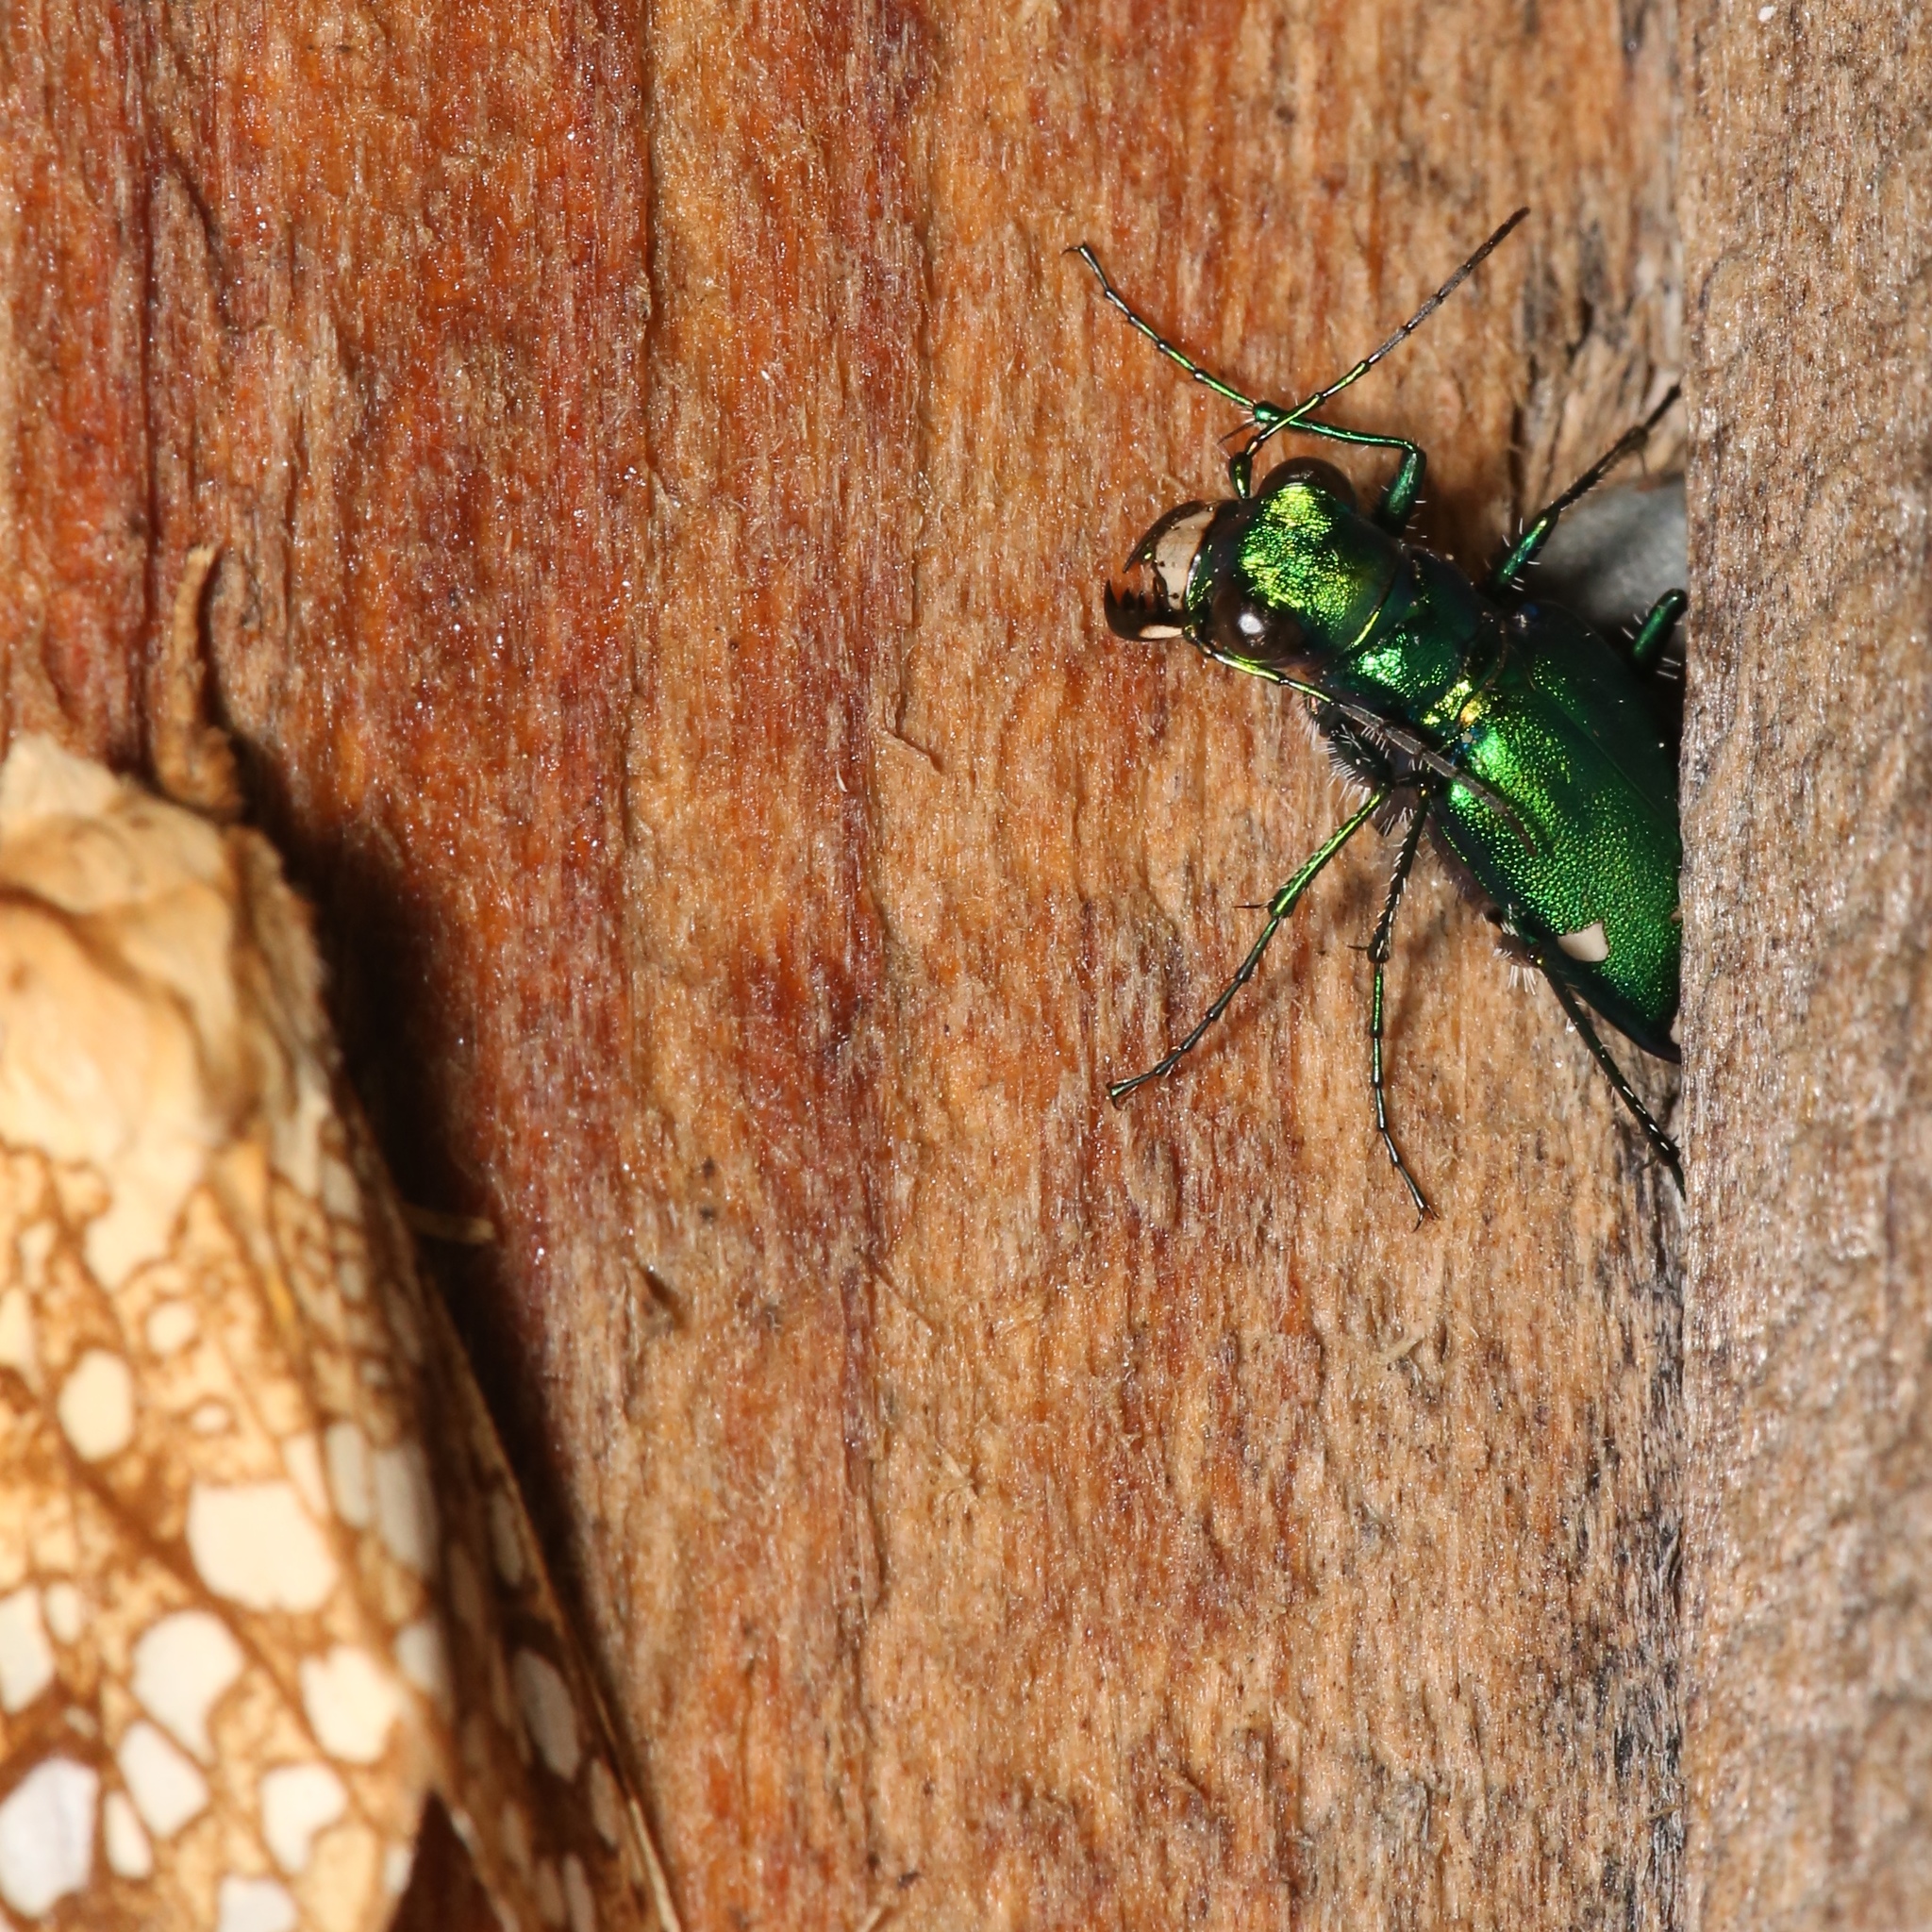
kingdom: Animalia
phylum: Arthropoda
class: Insecta
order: Coleoptera
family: Carabidae
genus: Cicindela
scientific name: Cicindela sexguttata
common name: Six-spotted tiger beetle
